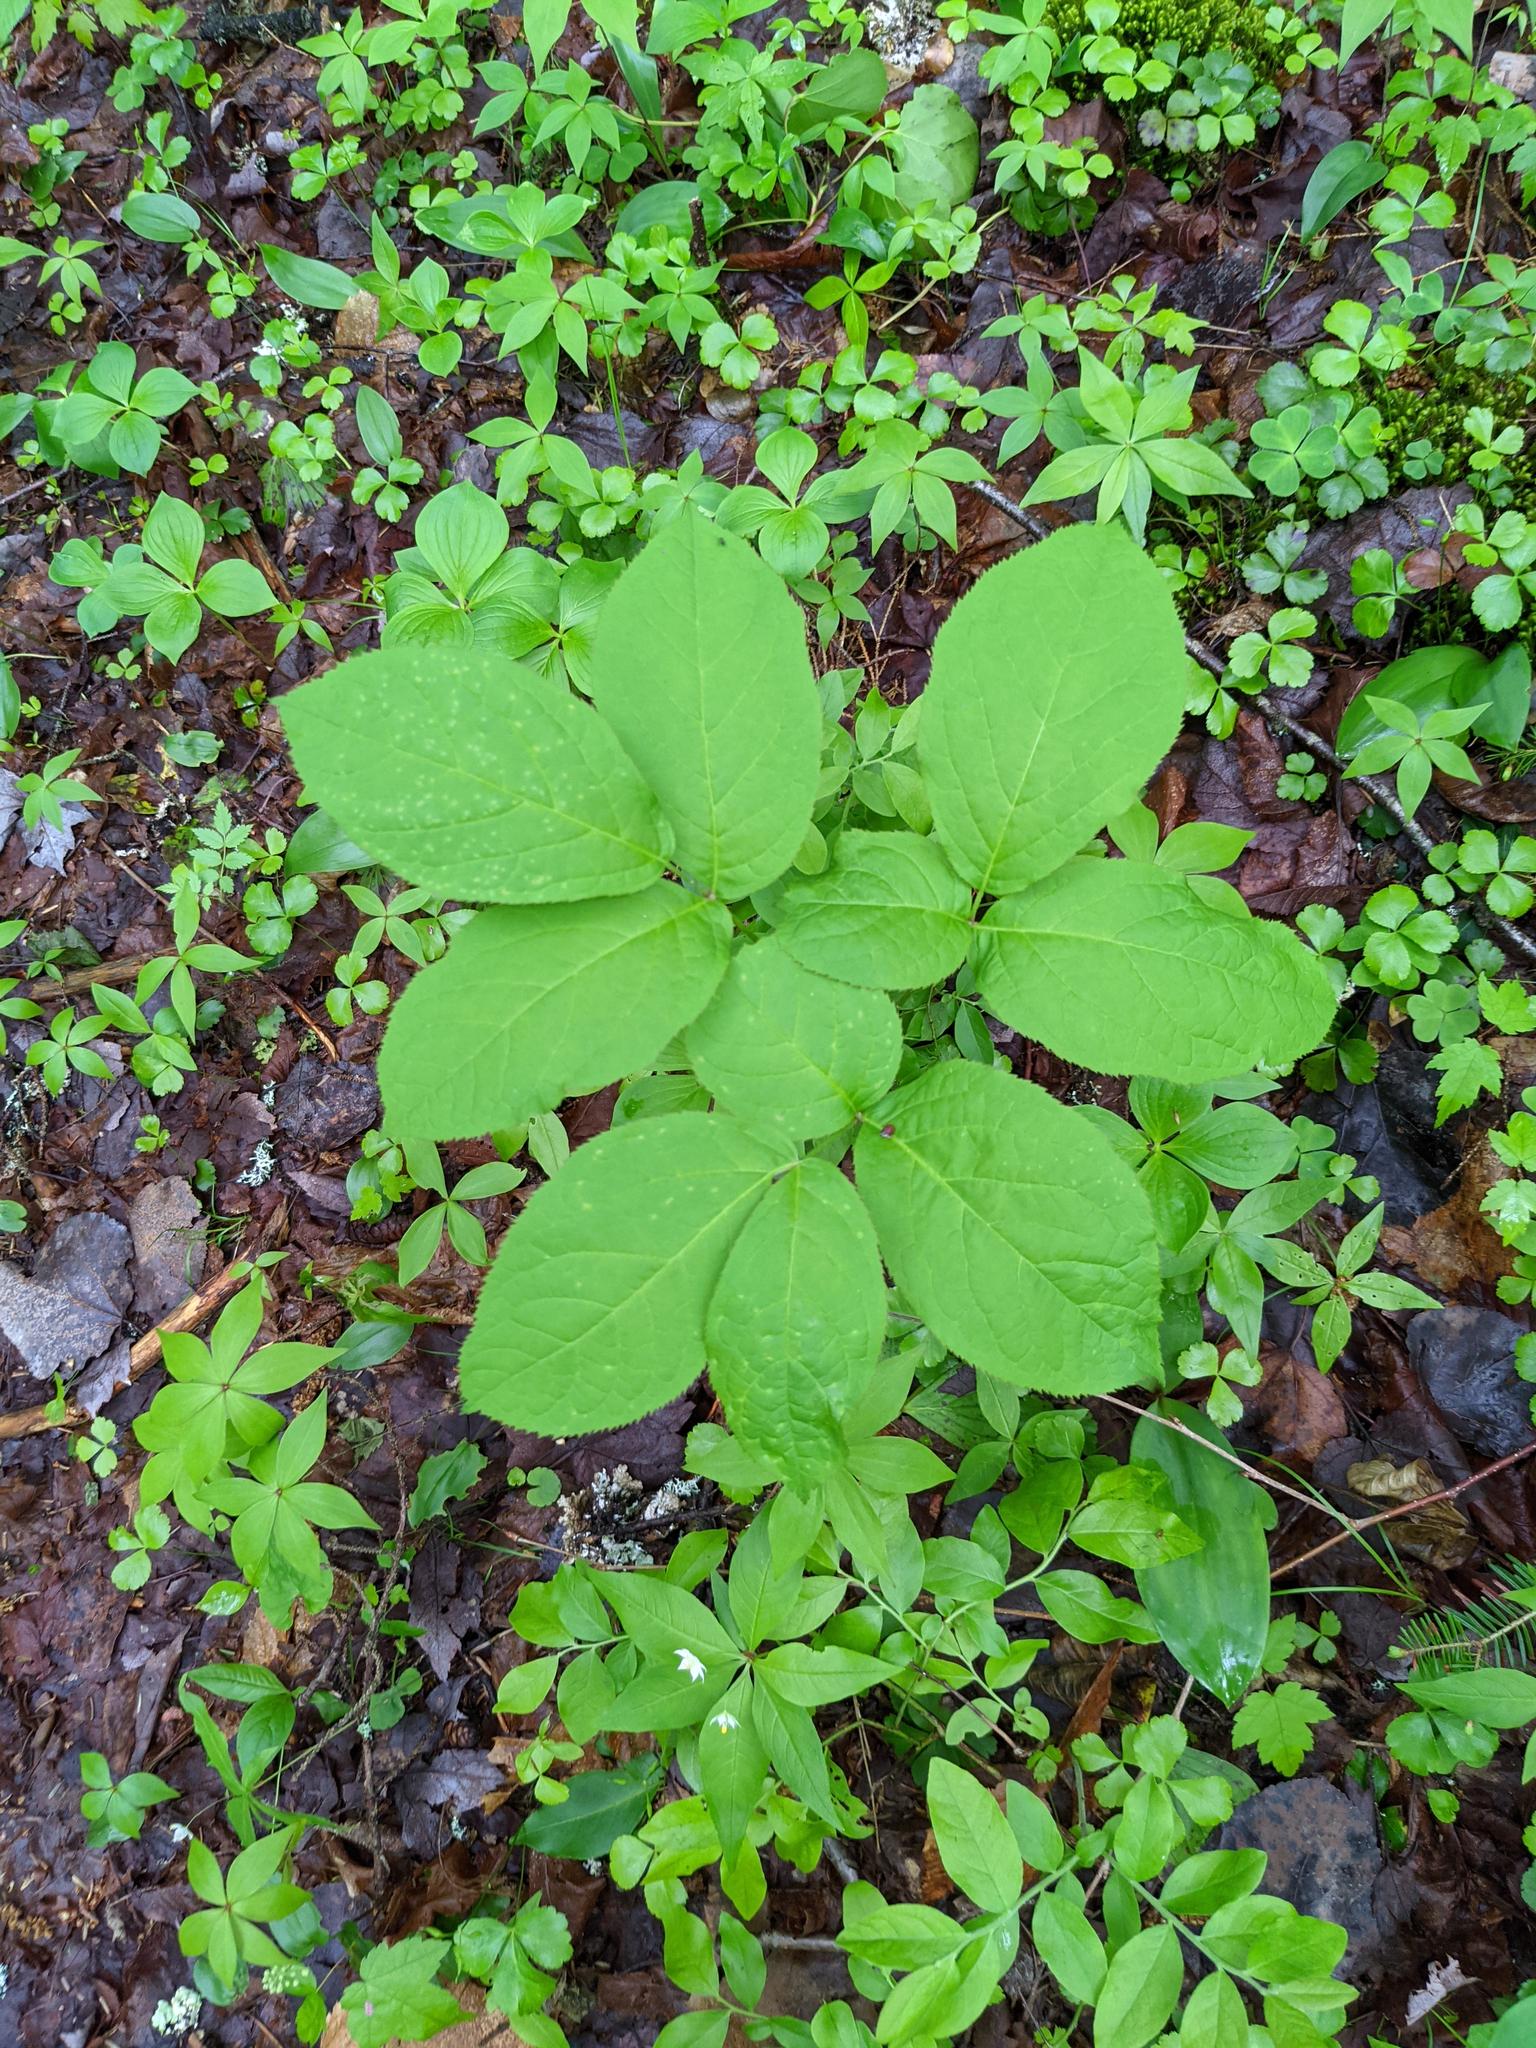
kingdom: Plantae
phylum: Tracheophyta
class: Magnoliopsida
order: Apiales
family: Araliaceae
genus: Aralia
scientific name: Aralia nudicaulis
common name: Wild sarsaparilla
